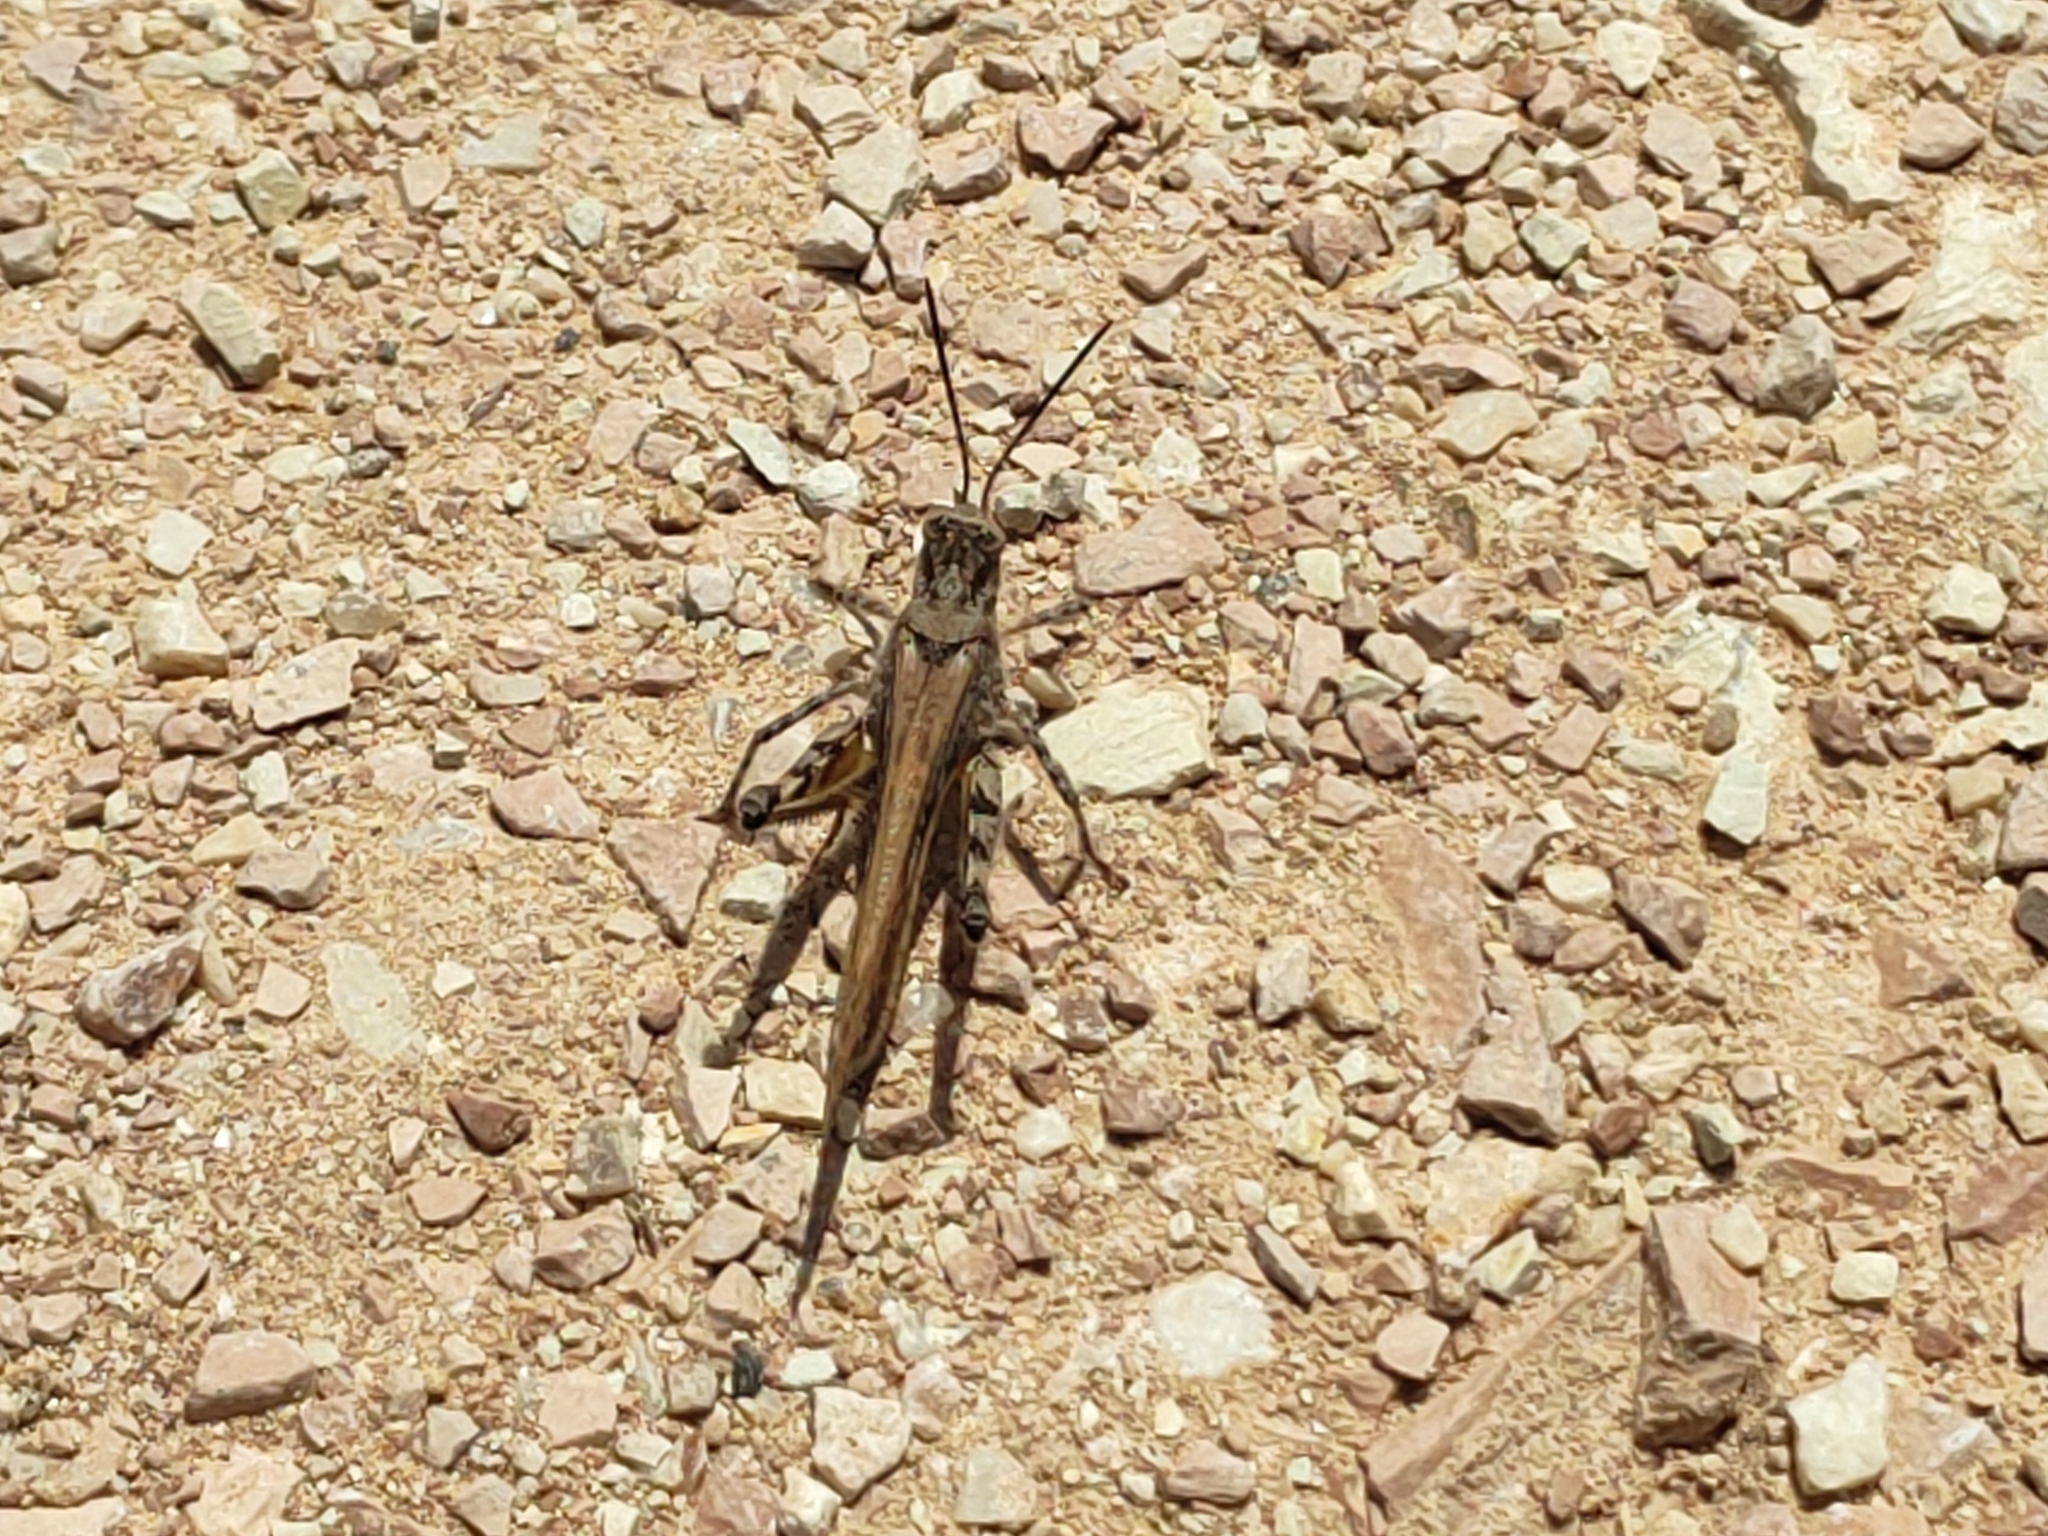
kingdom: Animalia
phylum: Arthropoda
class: Insecta
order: Orthoptera
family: Acrididae
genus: Acrotylus
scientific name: Acrotylus patruelis
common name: Slender burrowing grasshopper
